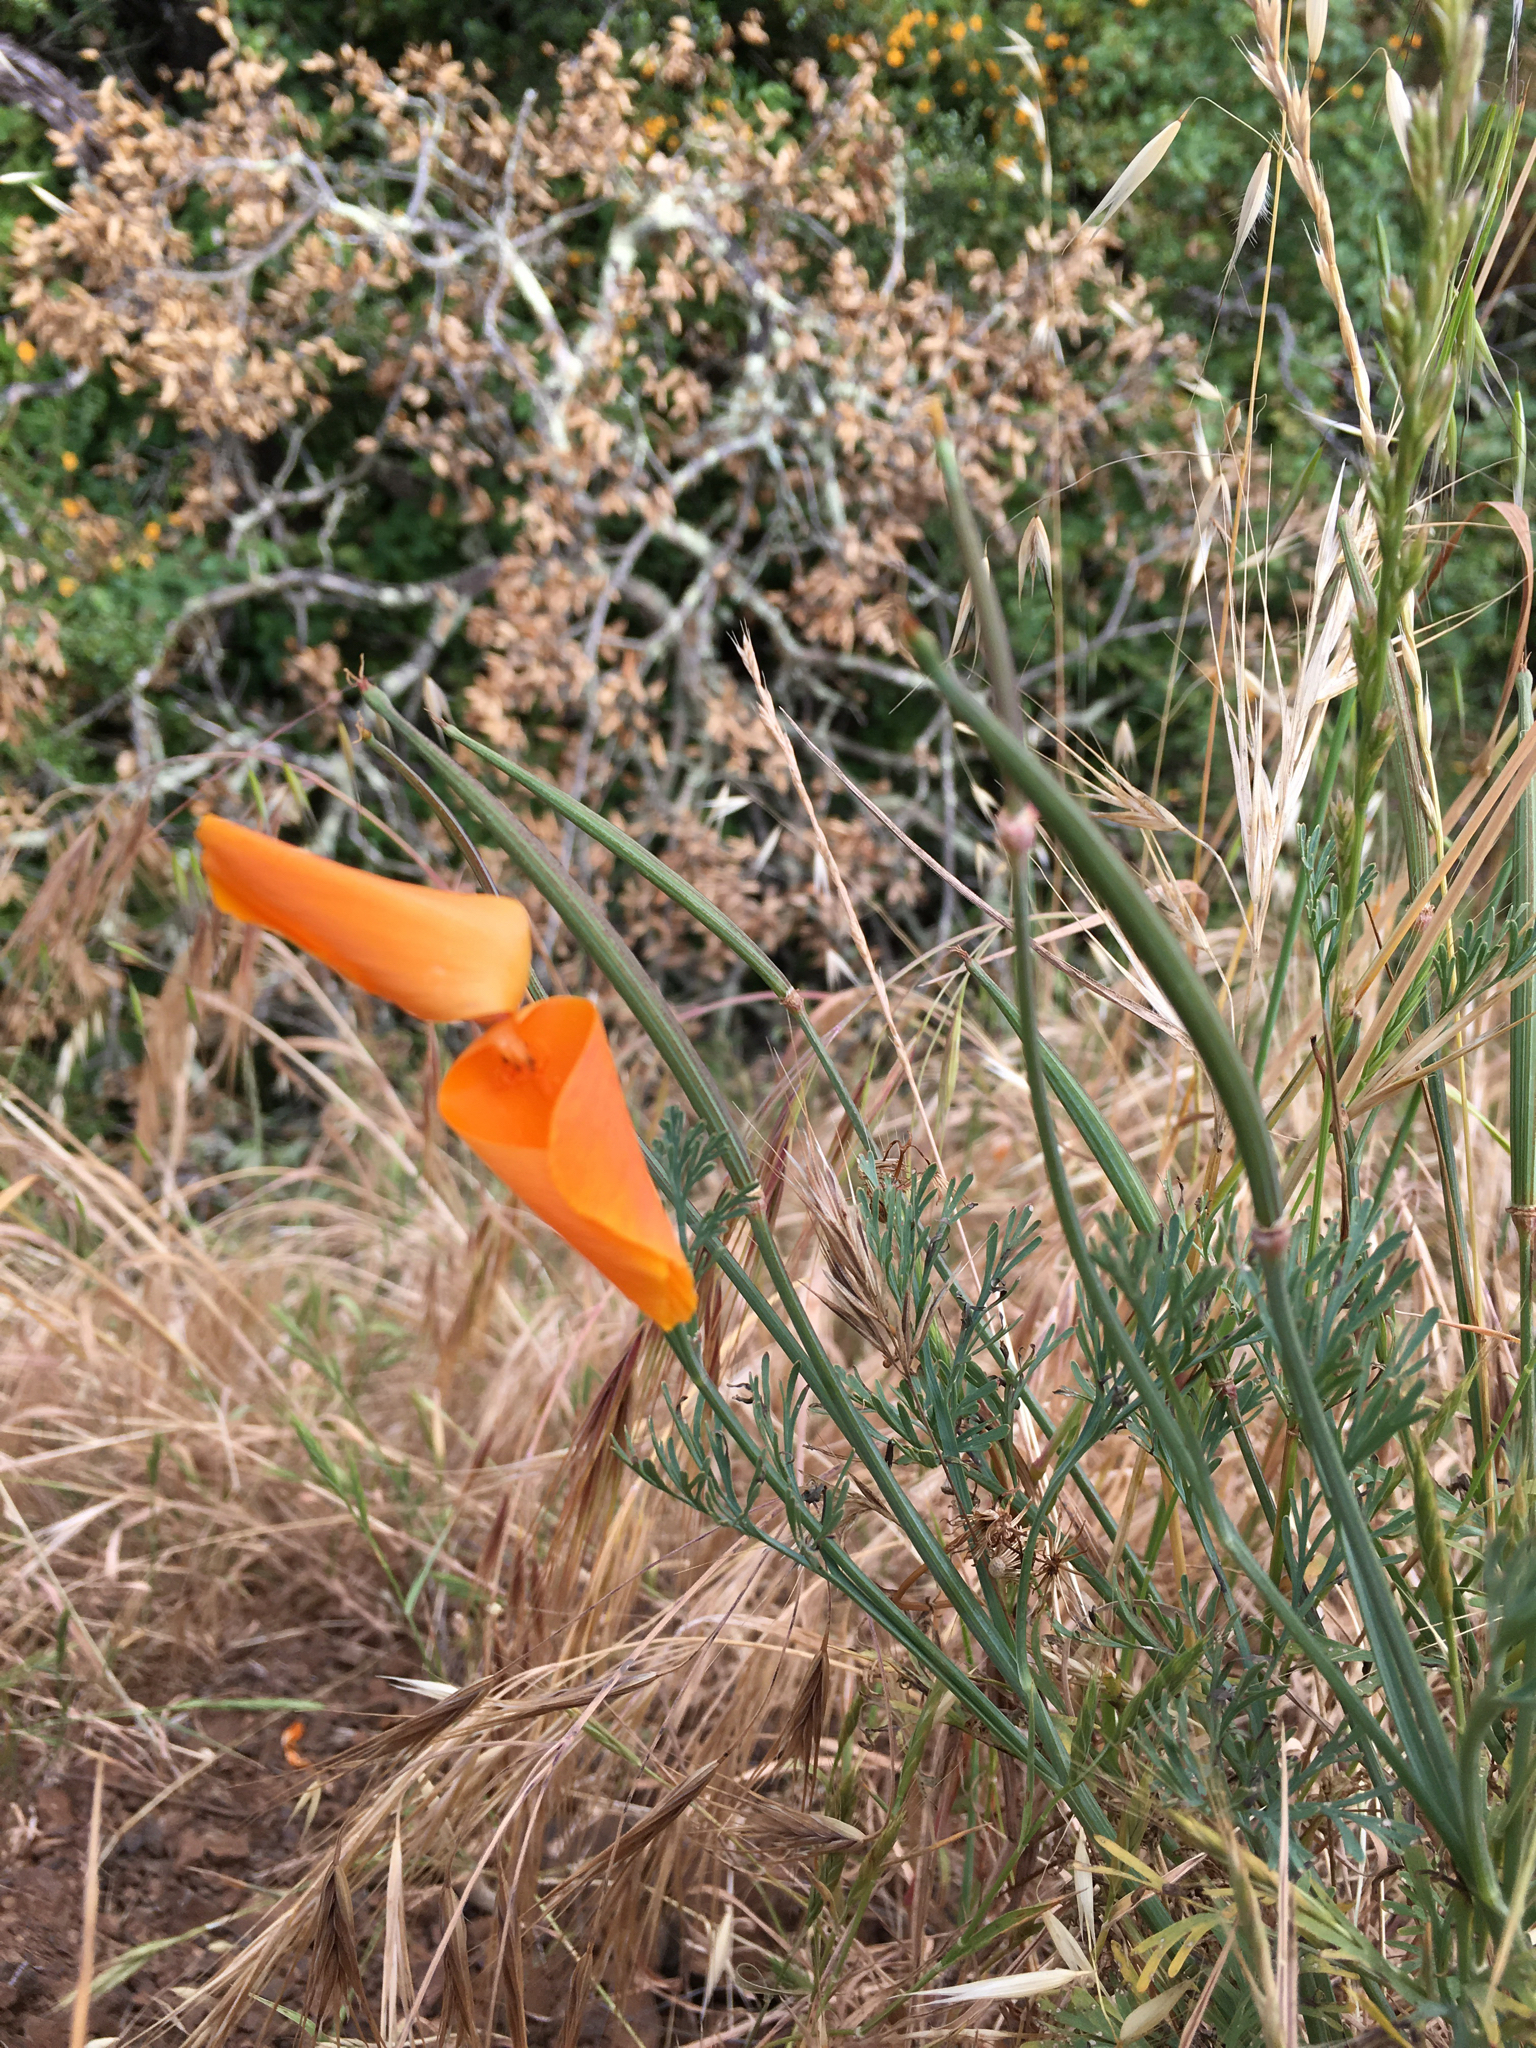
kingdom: Plantae
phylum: Tracheophyta
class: Magnoliopsida
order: Ranunculales
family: Papaveraceae
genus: Eschscholzia
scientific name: Eschscholzia californica
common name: California poppy
